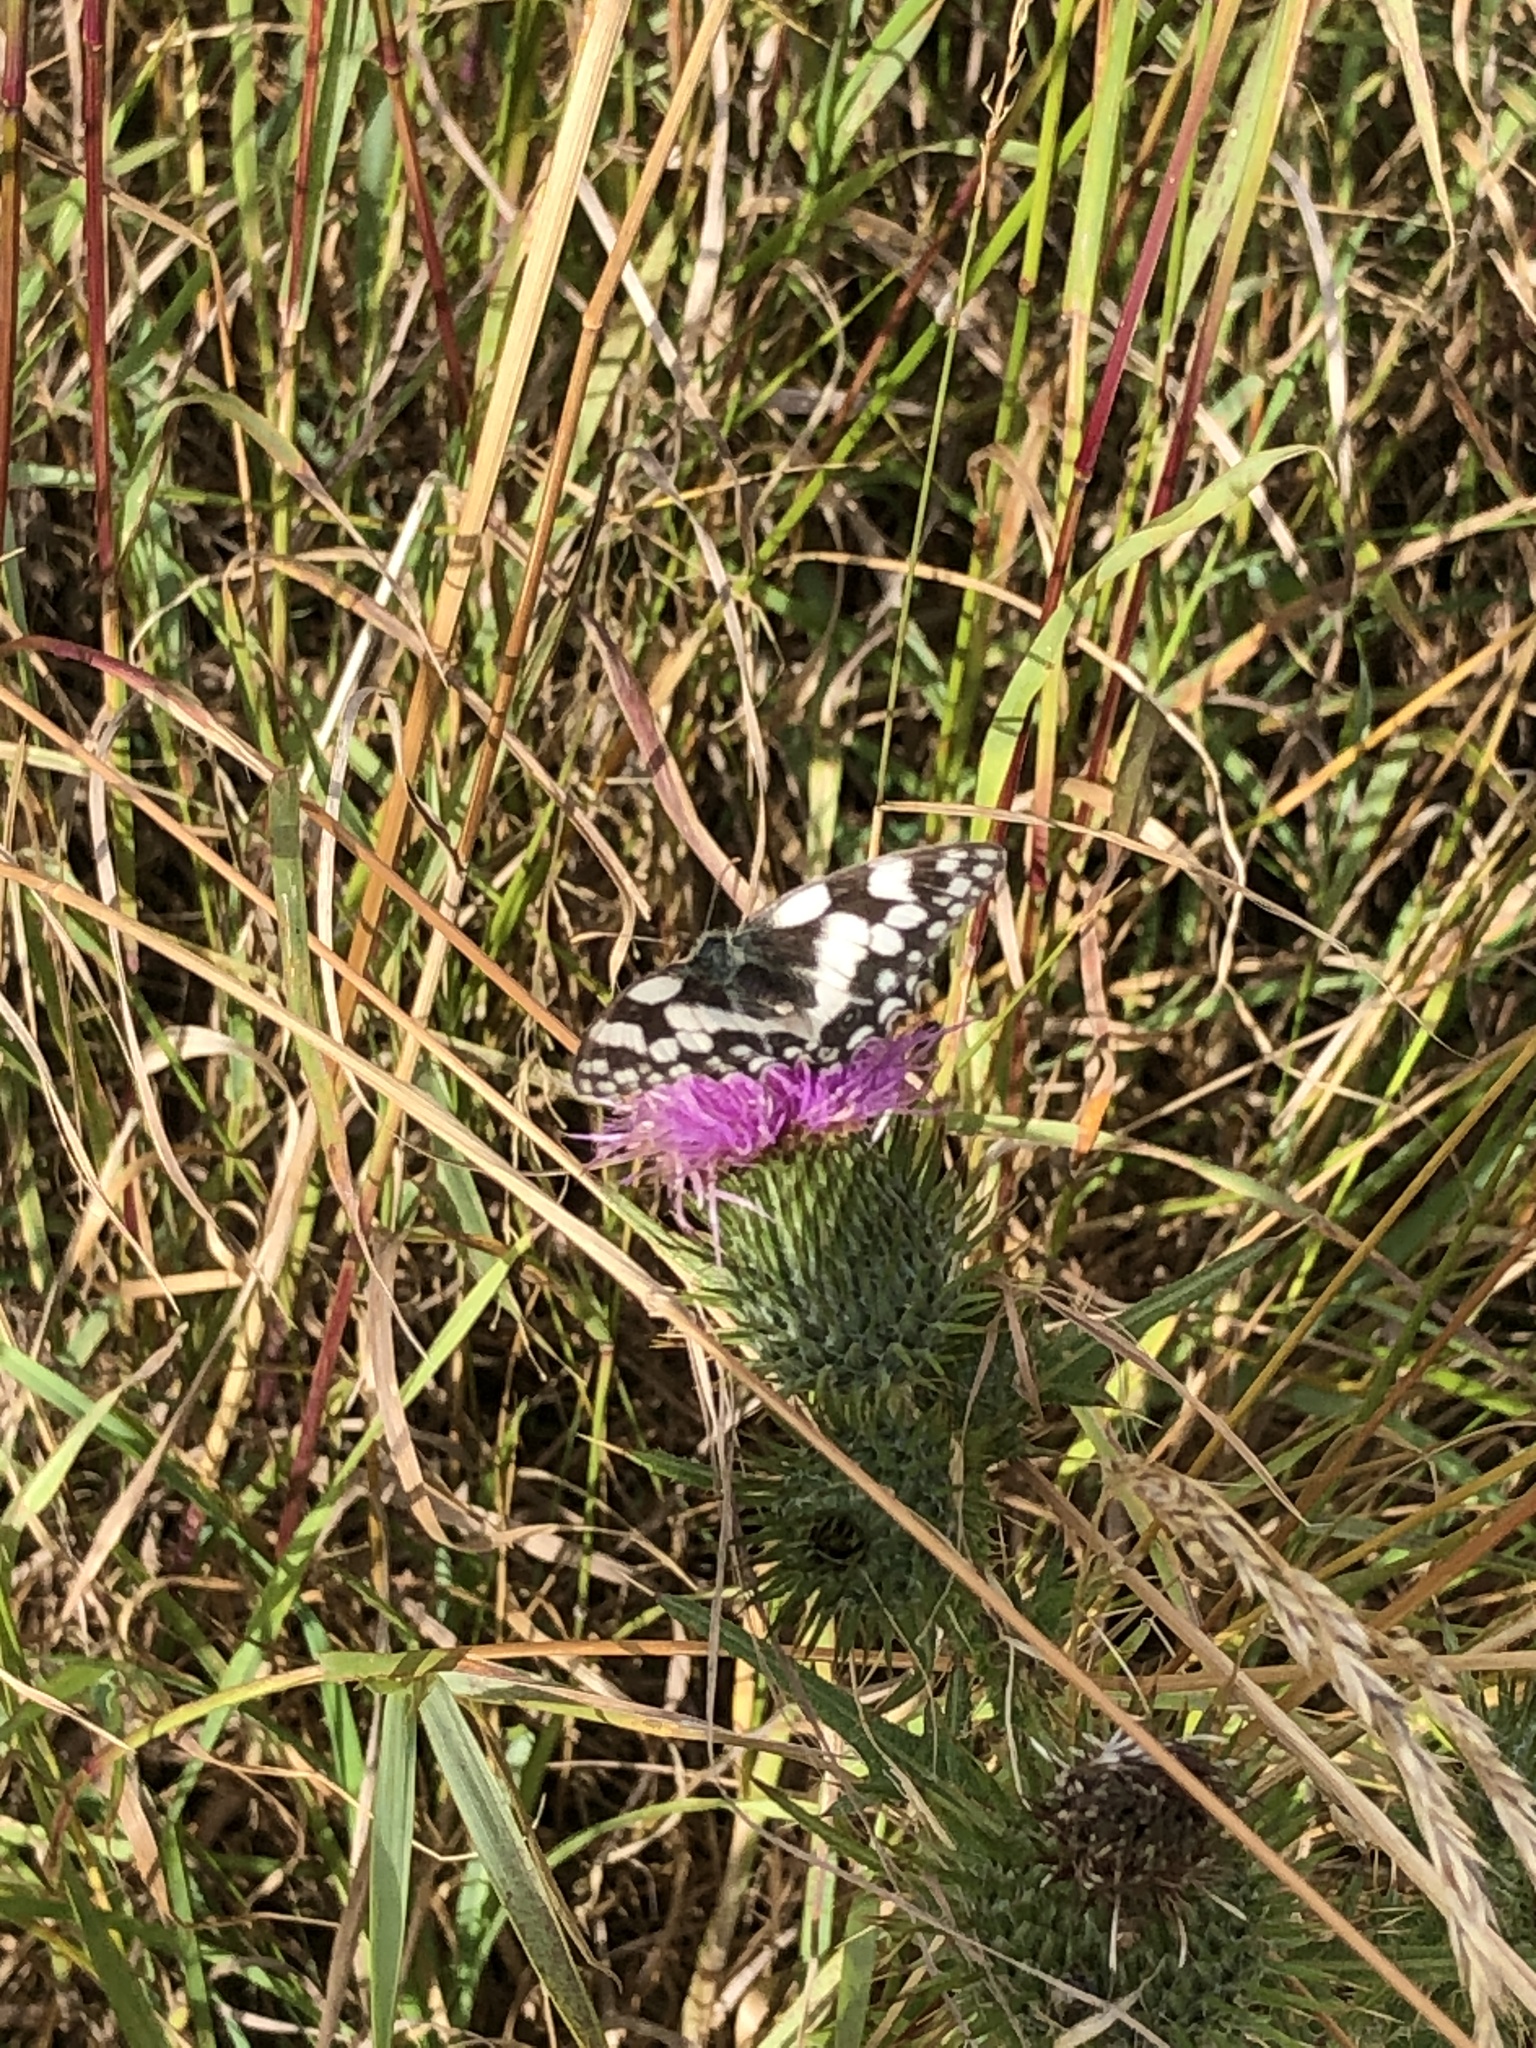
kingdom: Animalia
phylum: Arthropoda
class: Insecta
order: Lepidoptera
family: Nymphalidae
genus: Melanargia
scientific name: Melanargia galathea
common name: Marbled white
